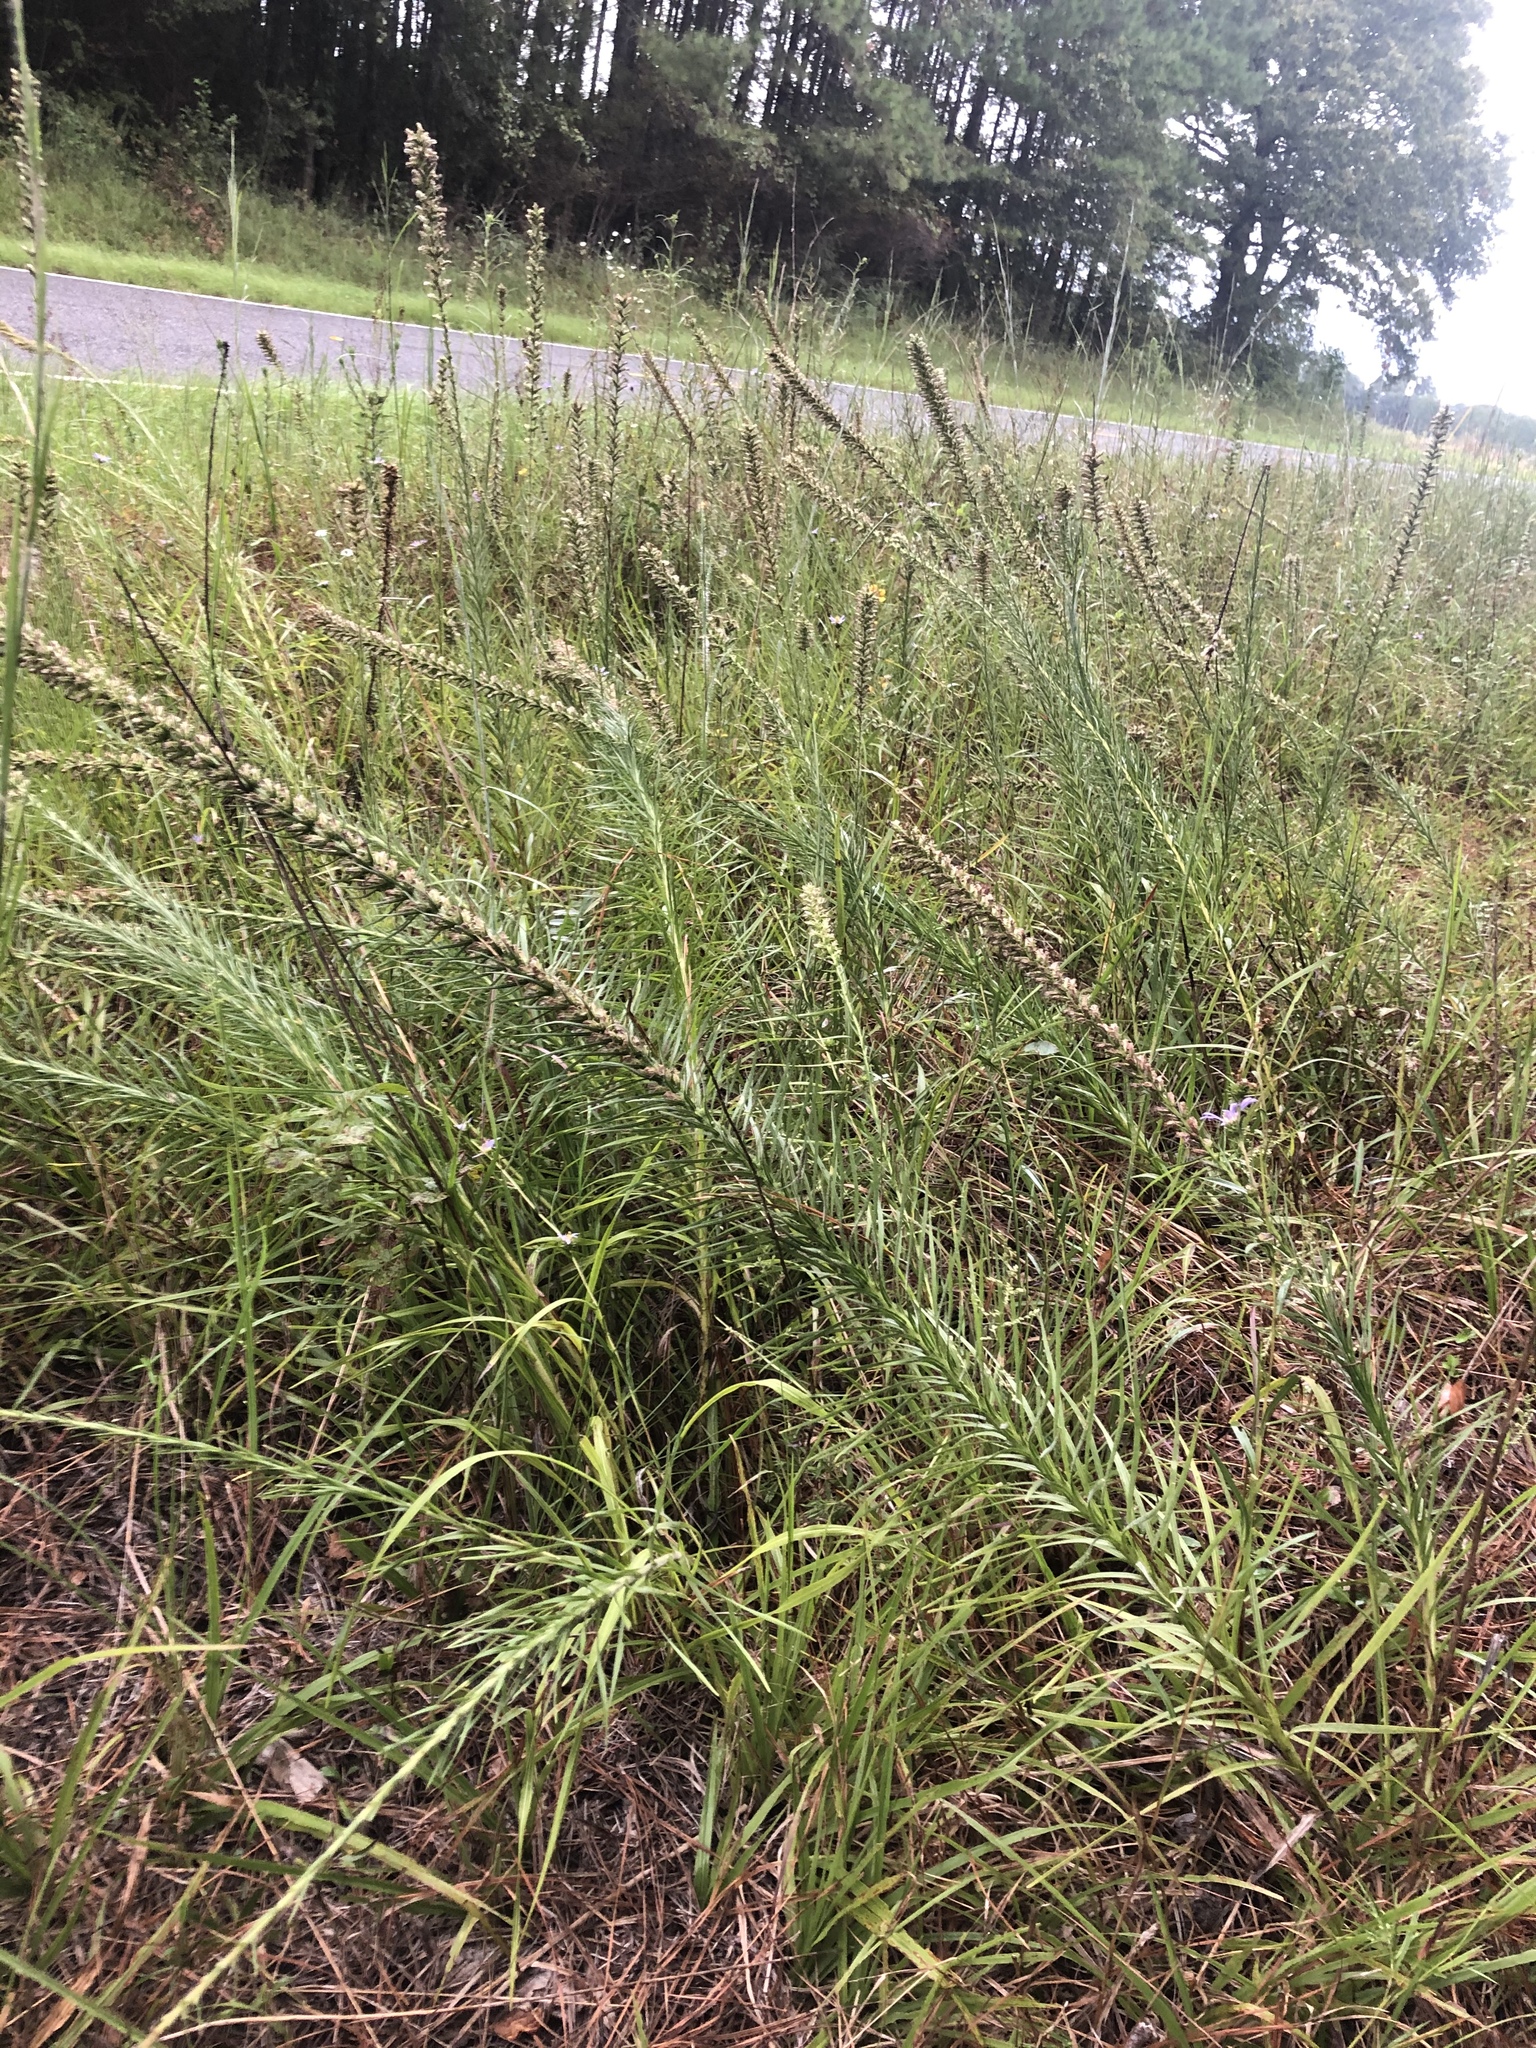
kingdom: Plantae
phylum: Tracheophyta
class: Magnoliopsida
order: Asterales
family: Asteraceae
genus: Liatris
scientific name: Liatris pycnostachya
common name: Cattail gayfeather
